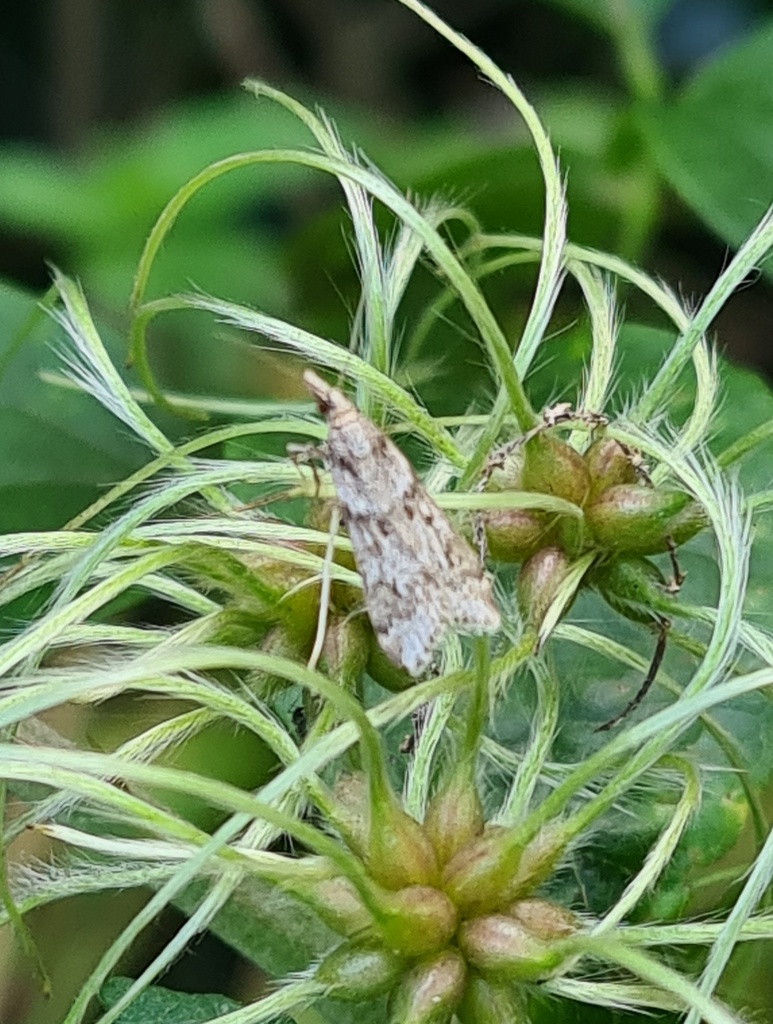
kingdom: Animalia
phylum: Arthropoda
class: Insecta
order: Lepidoptera
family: Crambidae
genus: Eudonia
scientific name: Eudonia angustea
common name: Narrow-winged grey
